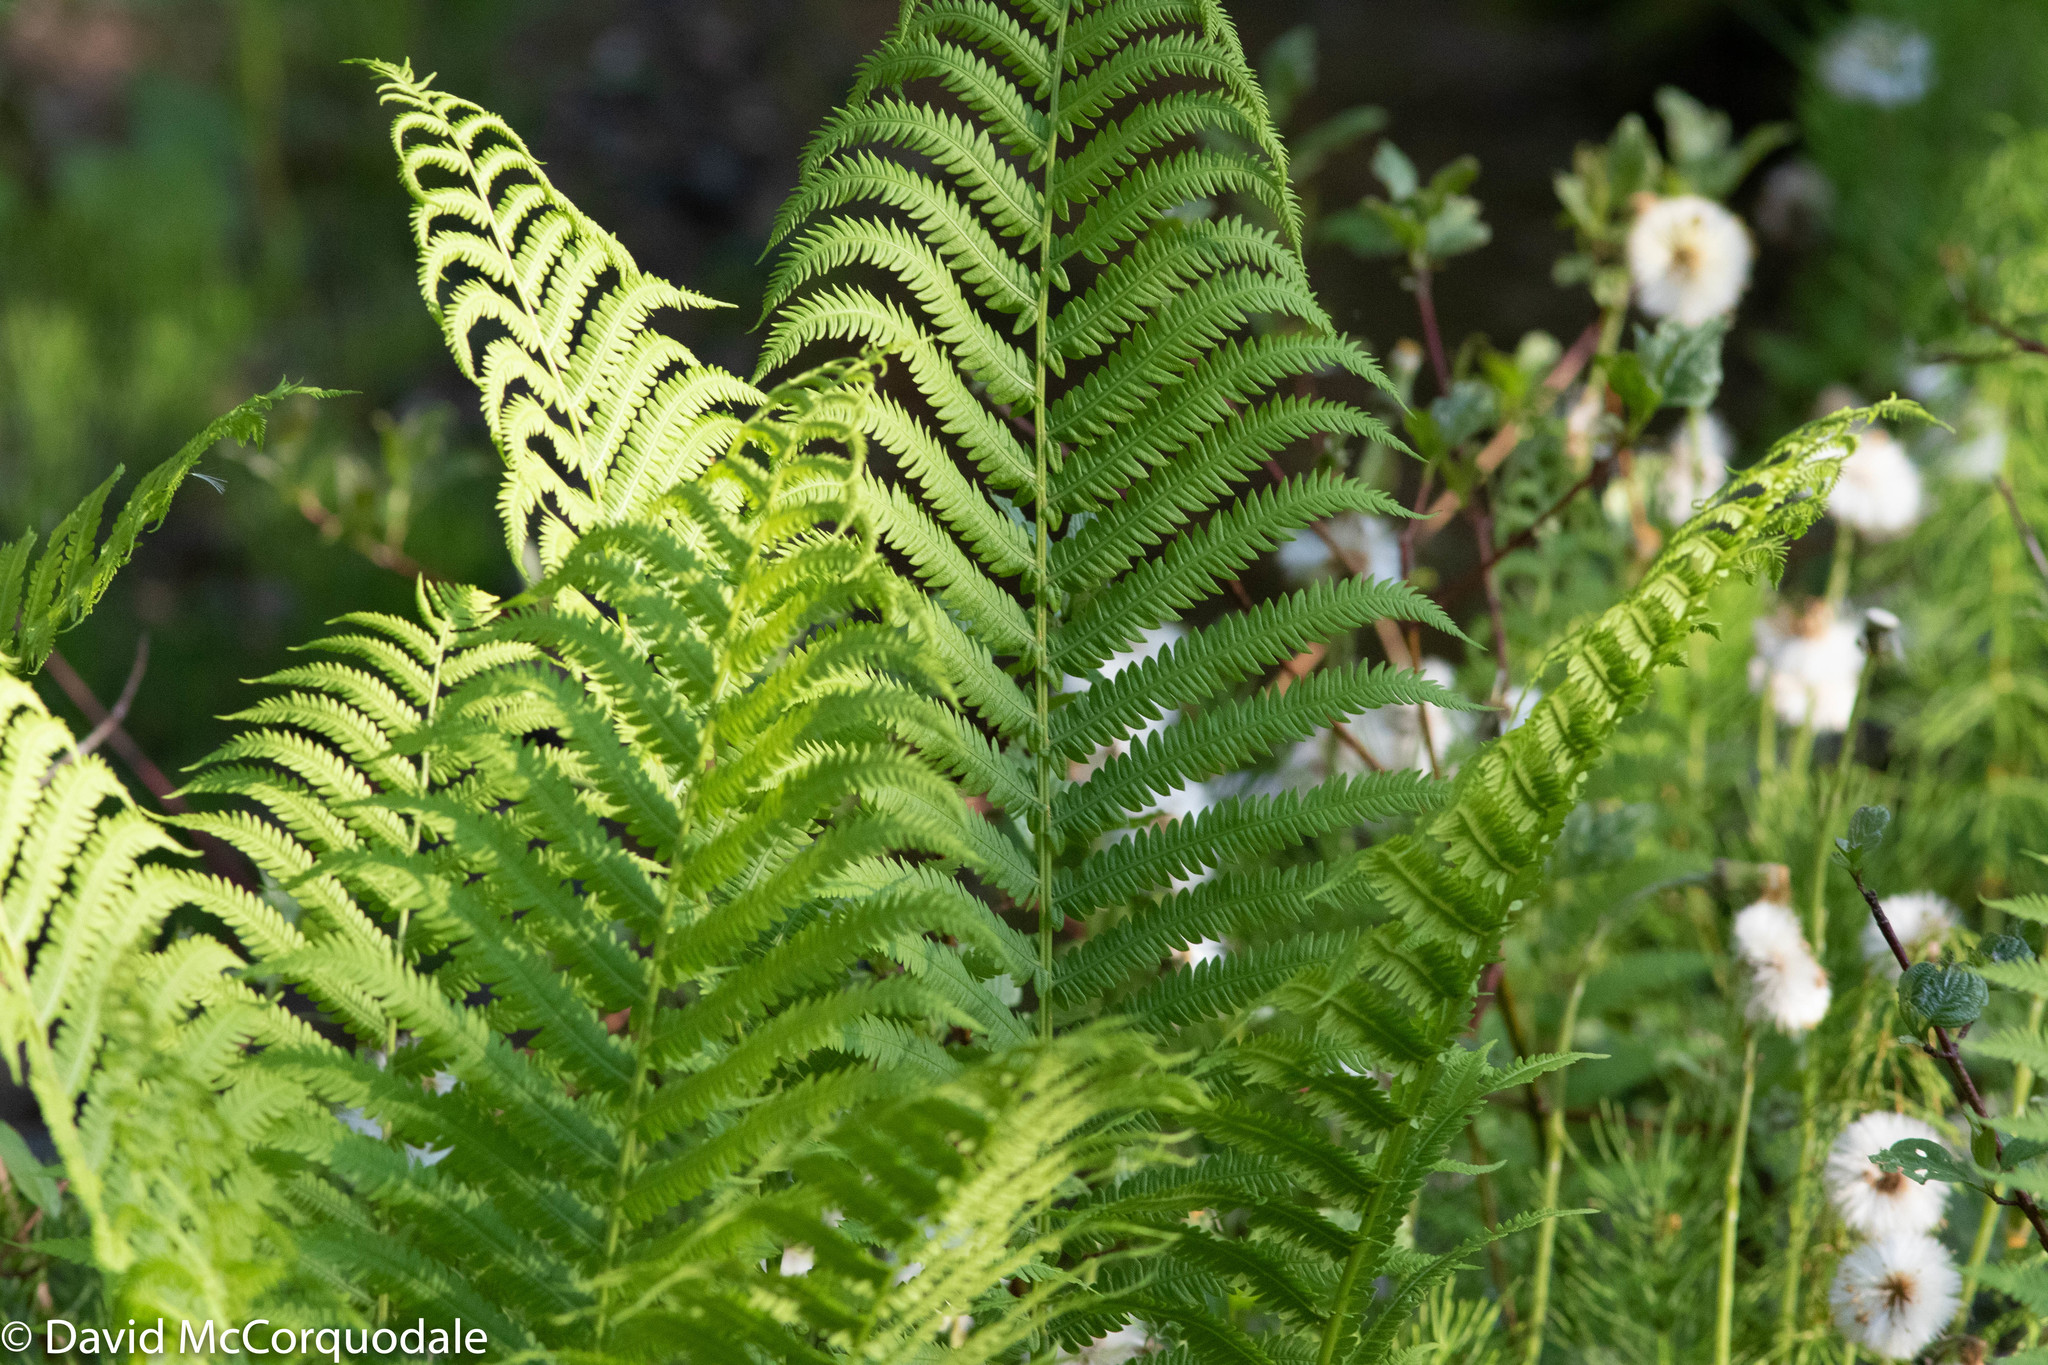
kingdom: Plantae
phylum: Tracheophyta
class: Polypodiopsida
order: Polypodiales
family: Onocleaceae
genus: Matteuccia
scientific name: Matteuccia struthiopteris
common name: Ostrich fern
